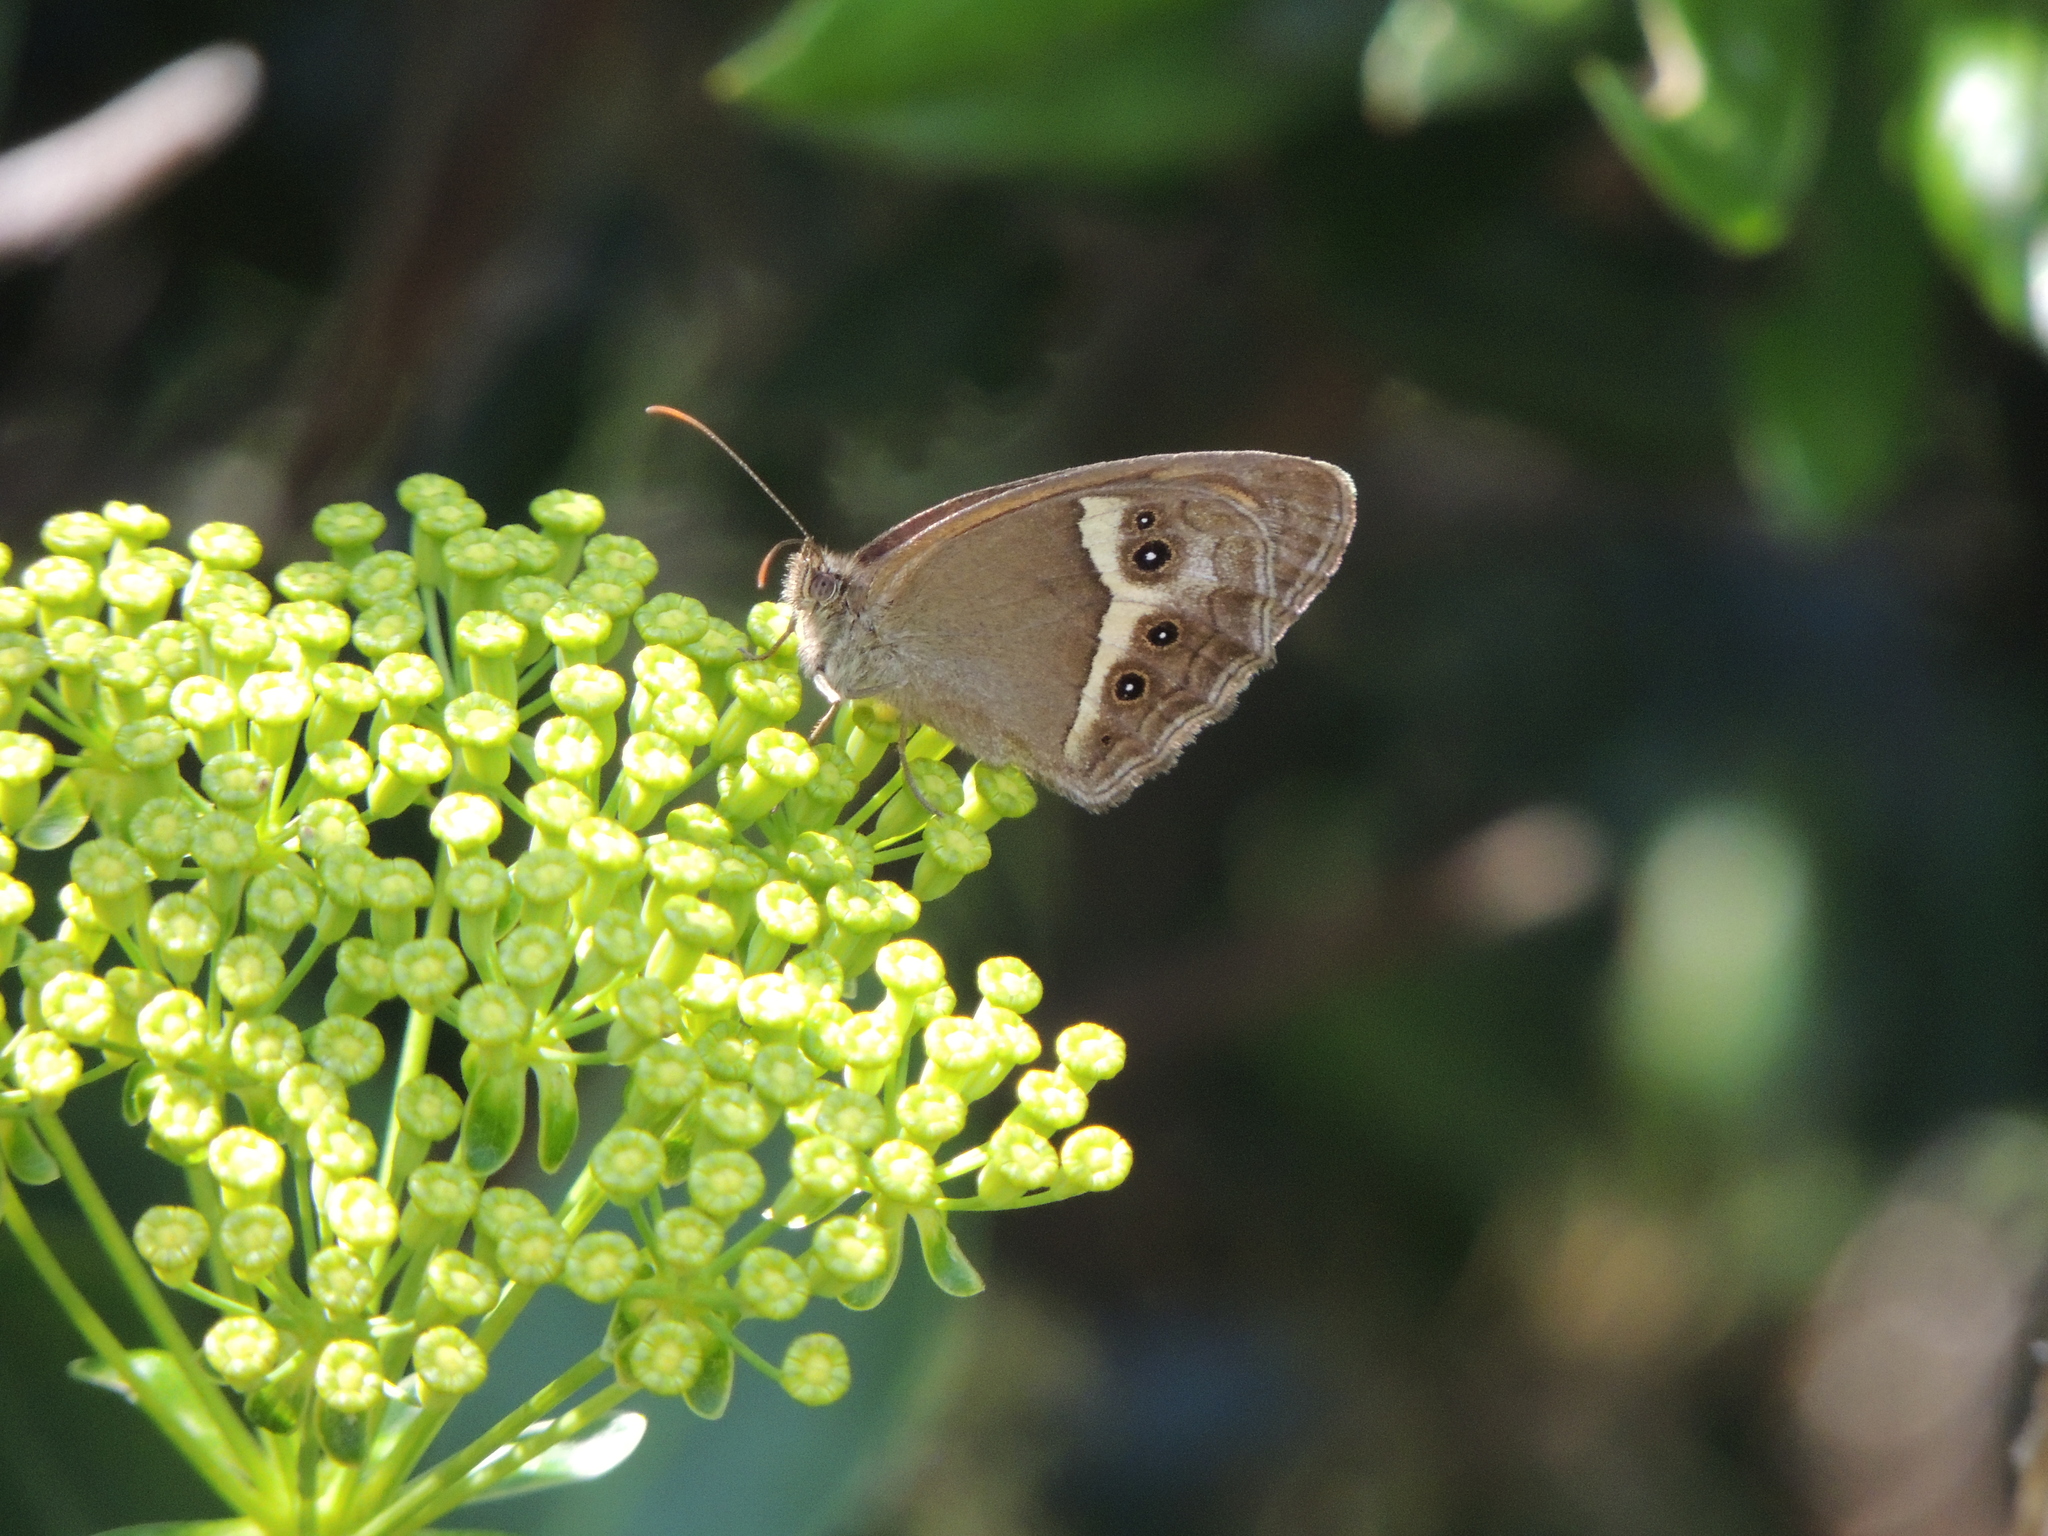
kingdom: Animalia
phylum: Arthropoda
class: Insecta
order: Lepidoptera
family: Nymphalidae
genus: Pyronia
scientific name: Pyronia bathseba
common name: Spanish gatekeeper
